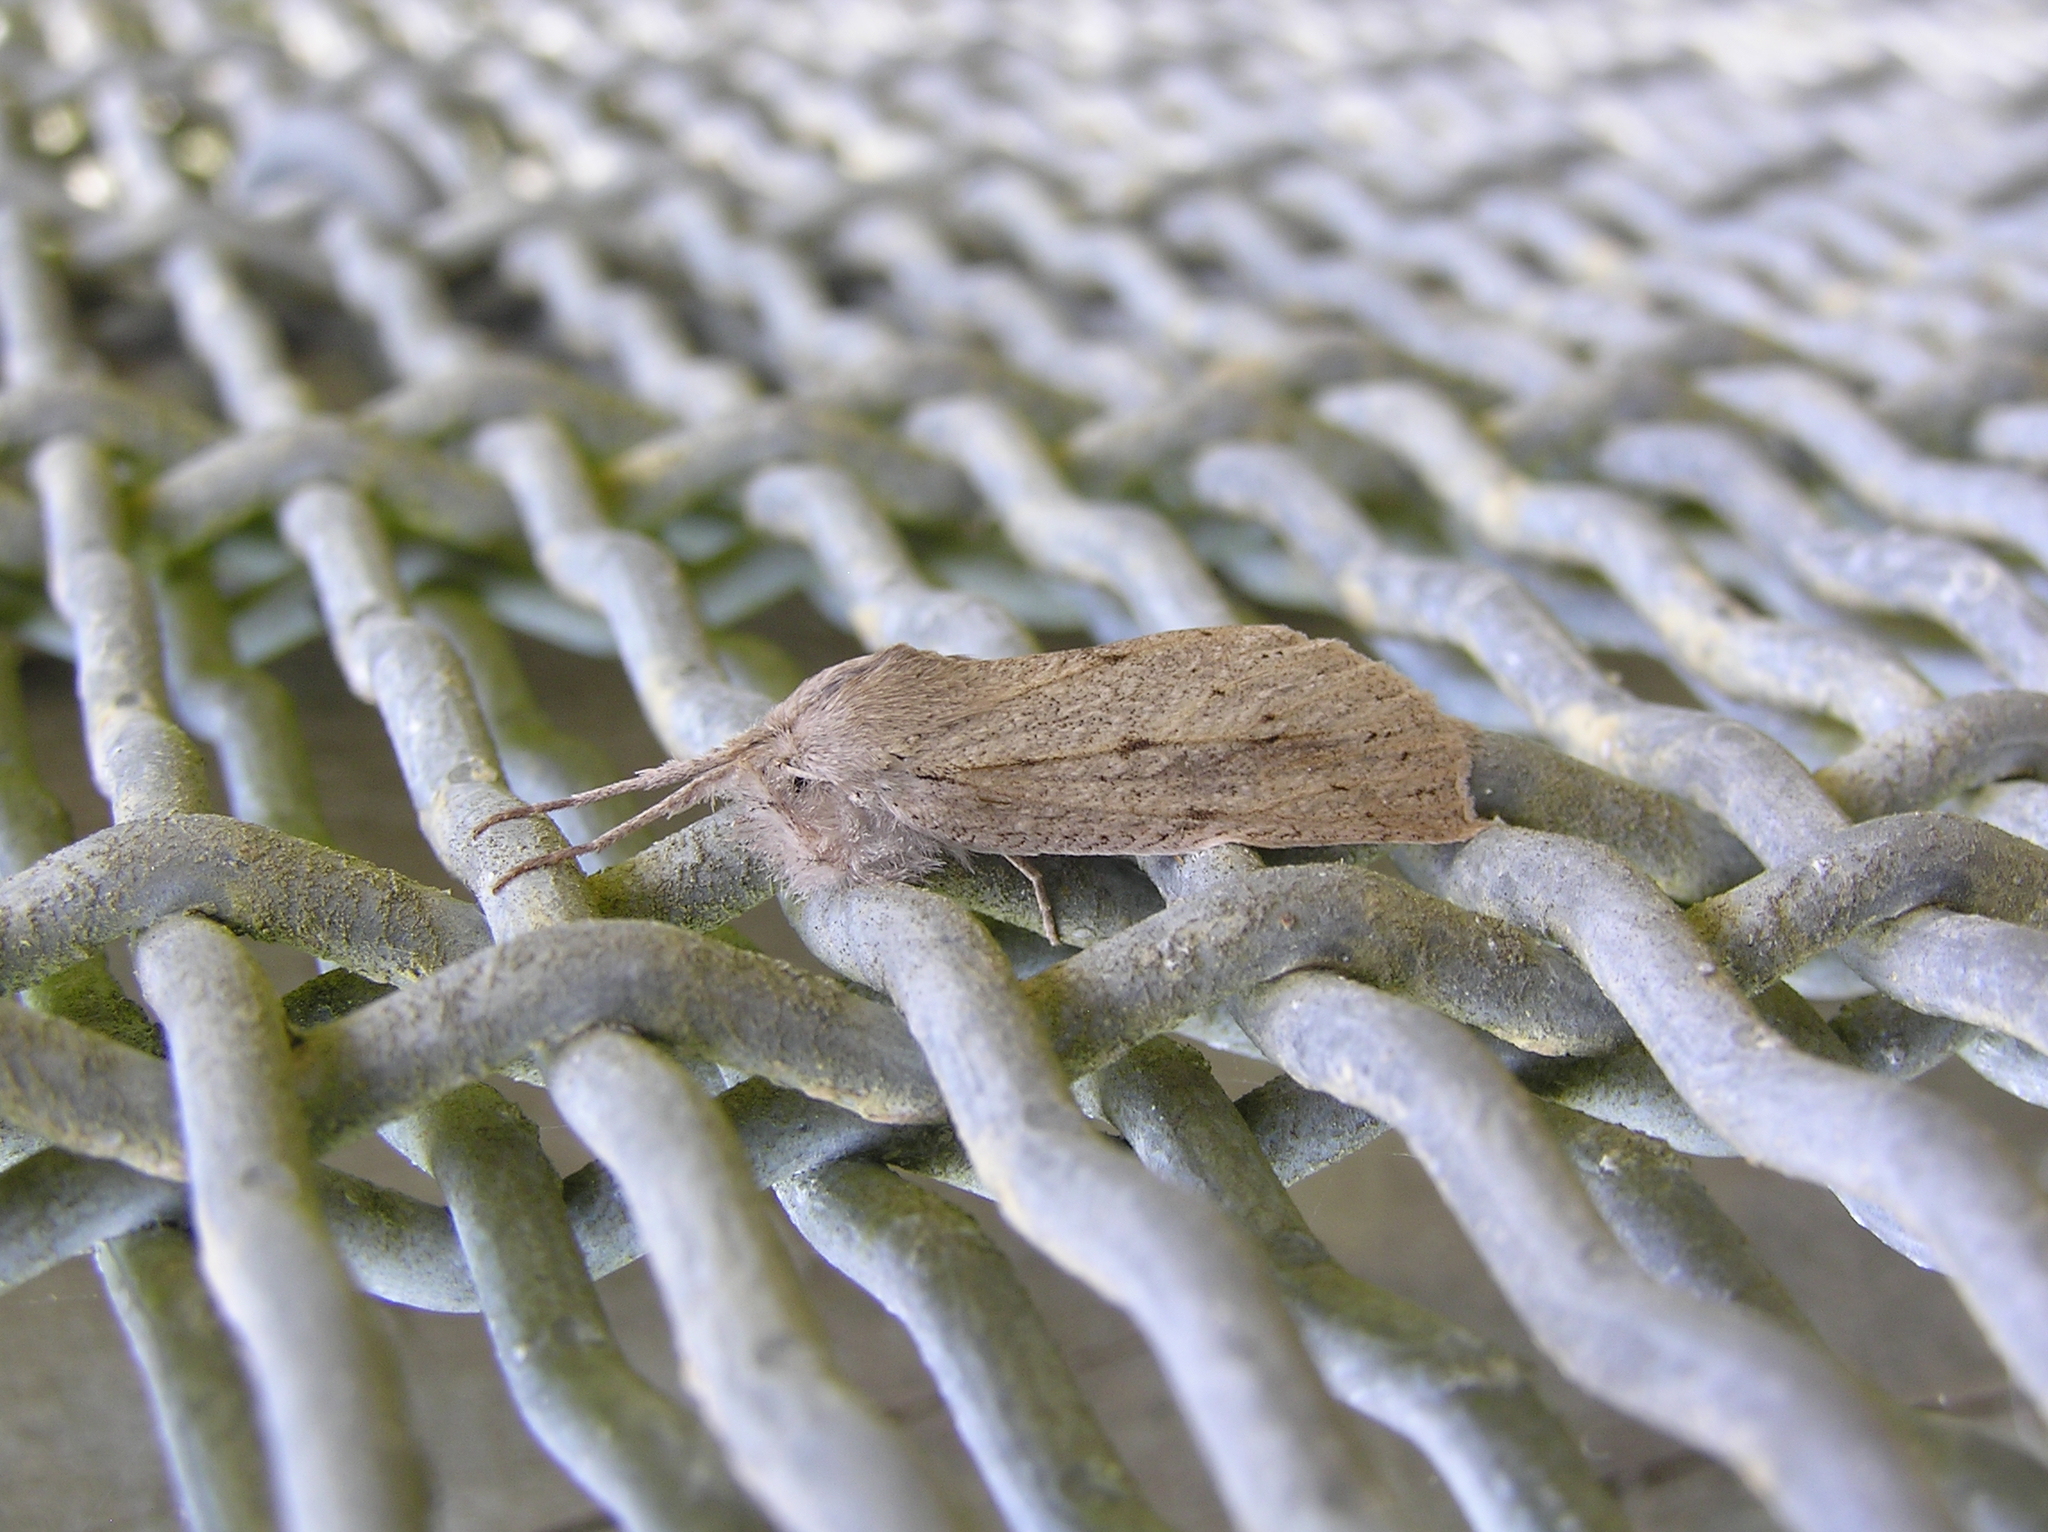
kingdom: Animalia
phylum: Arthropoda
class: Insecta
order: Lepidoptera
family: Geometridae
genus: Declana
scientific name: Declana leptomera
